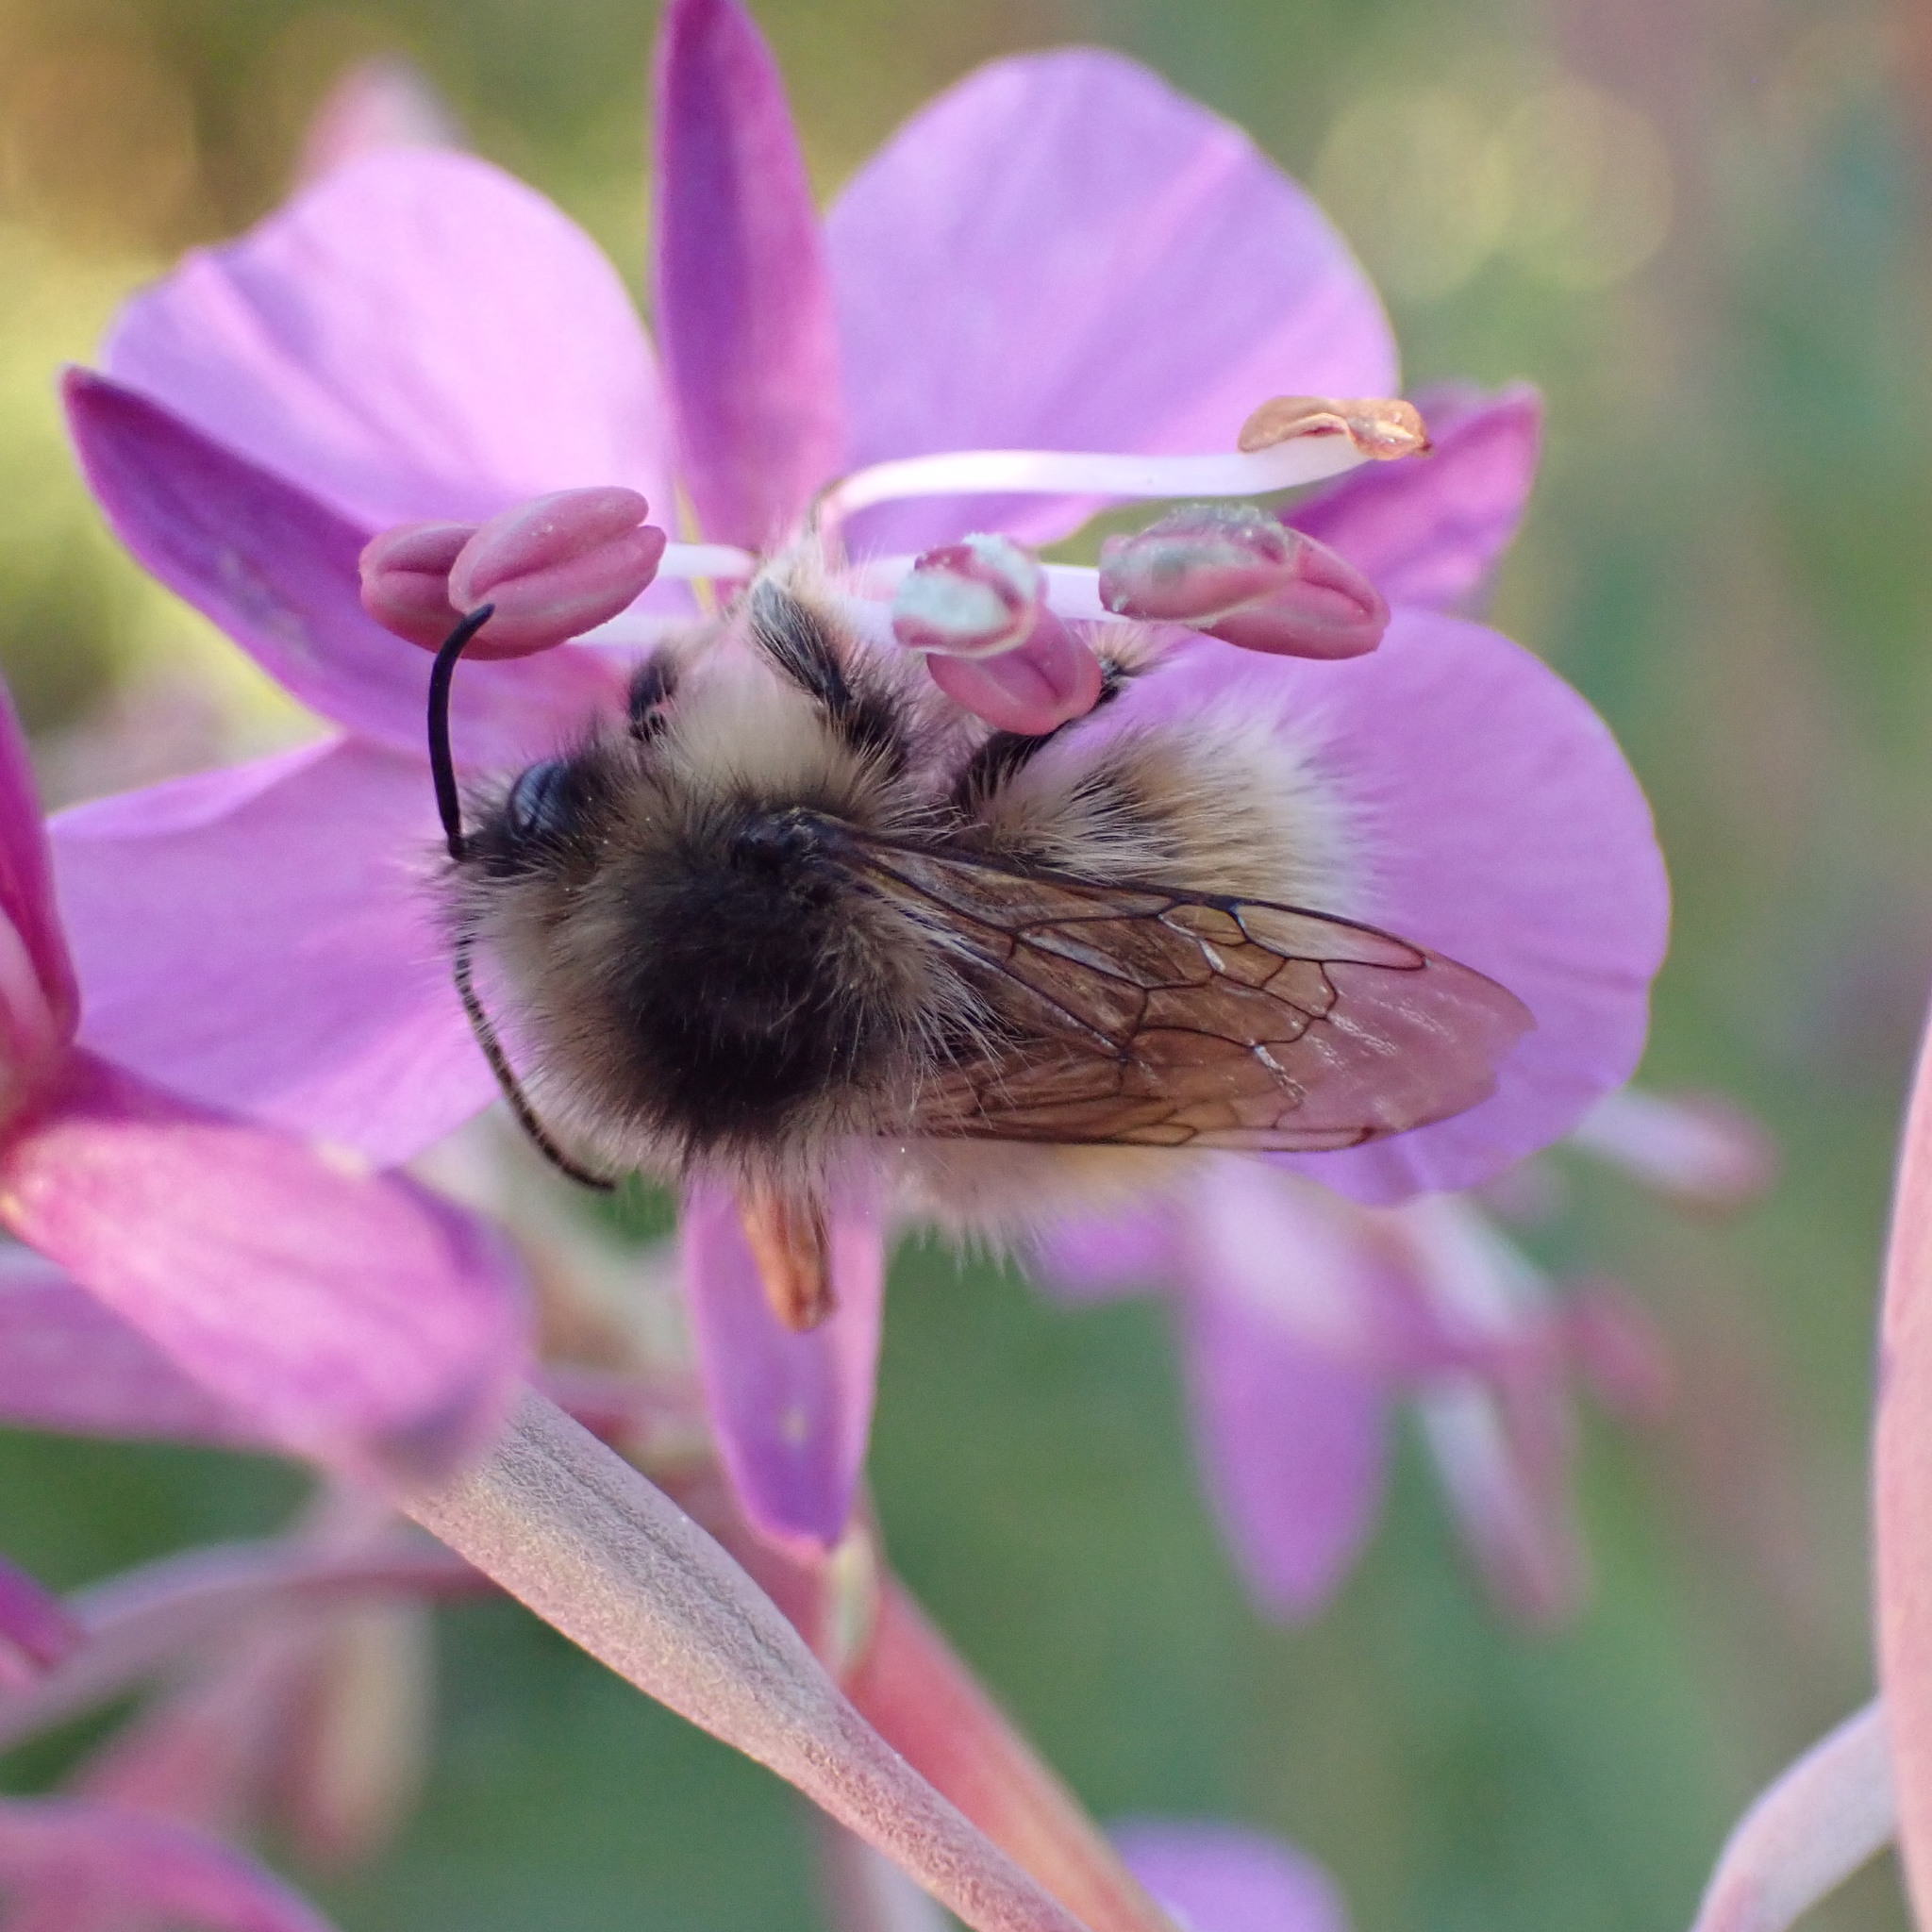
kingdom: Animalia
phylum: Arthropoda
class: Insecta
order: Hymenoptera
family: Apidae
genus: Bombus
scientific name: Bombus sylvicola
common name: Forest bumble bee
